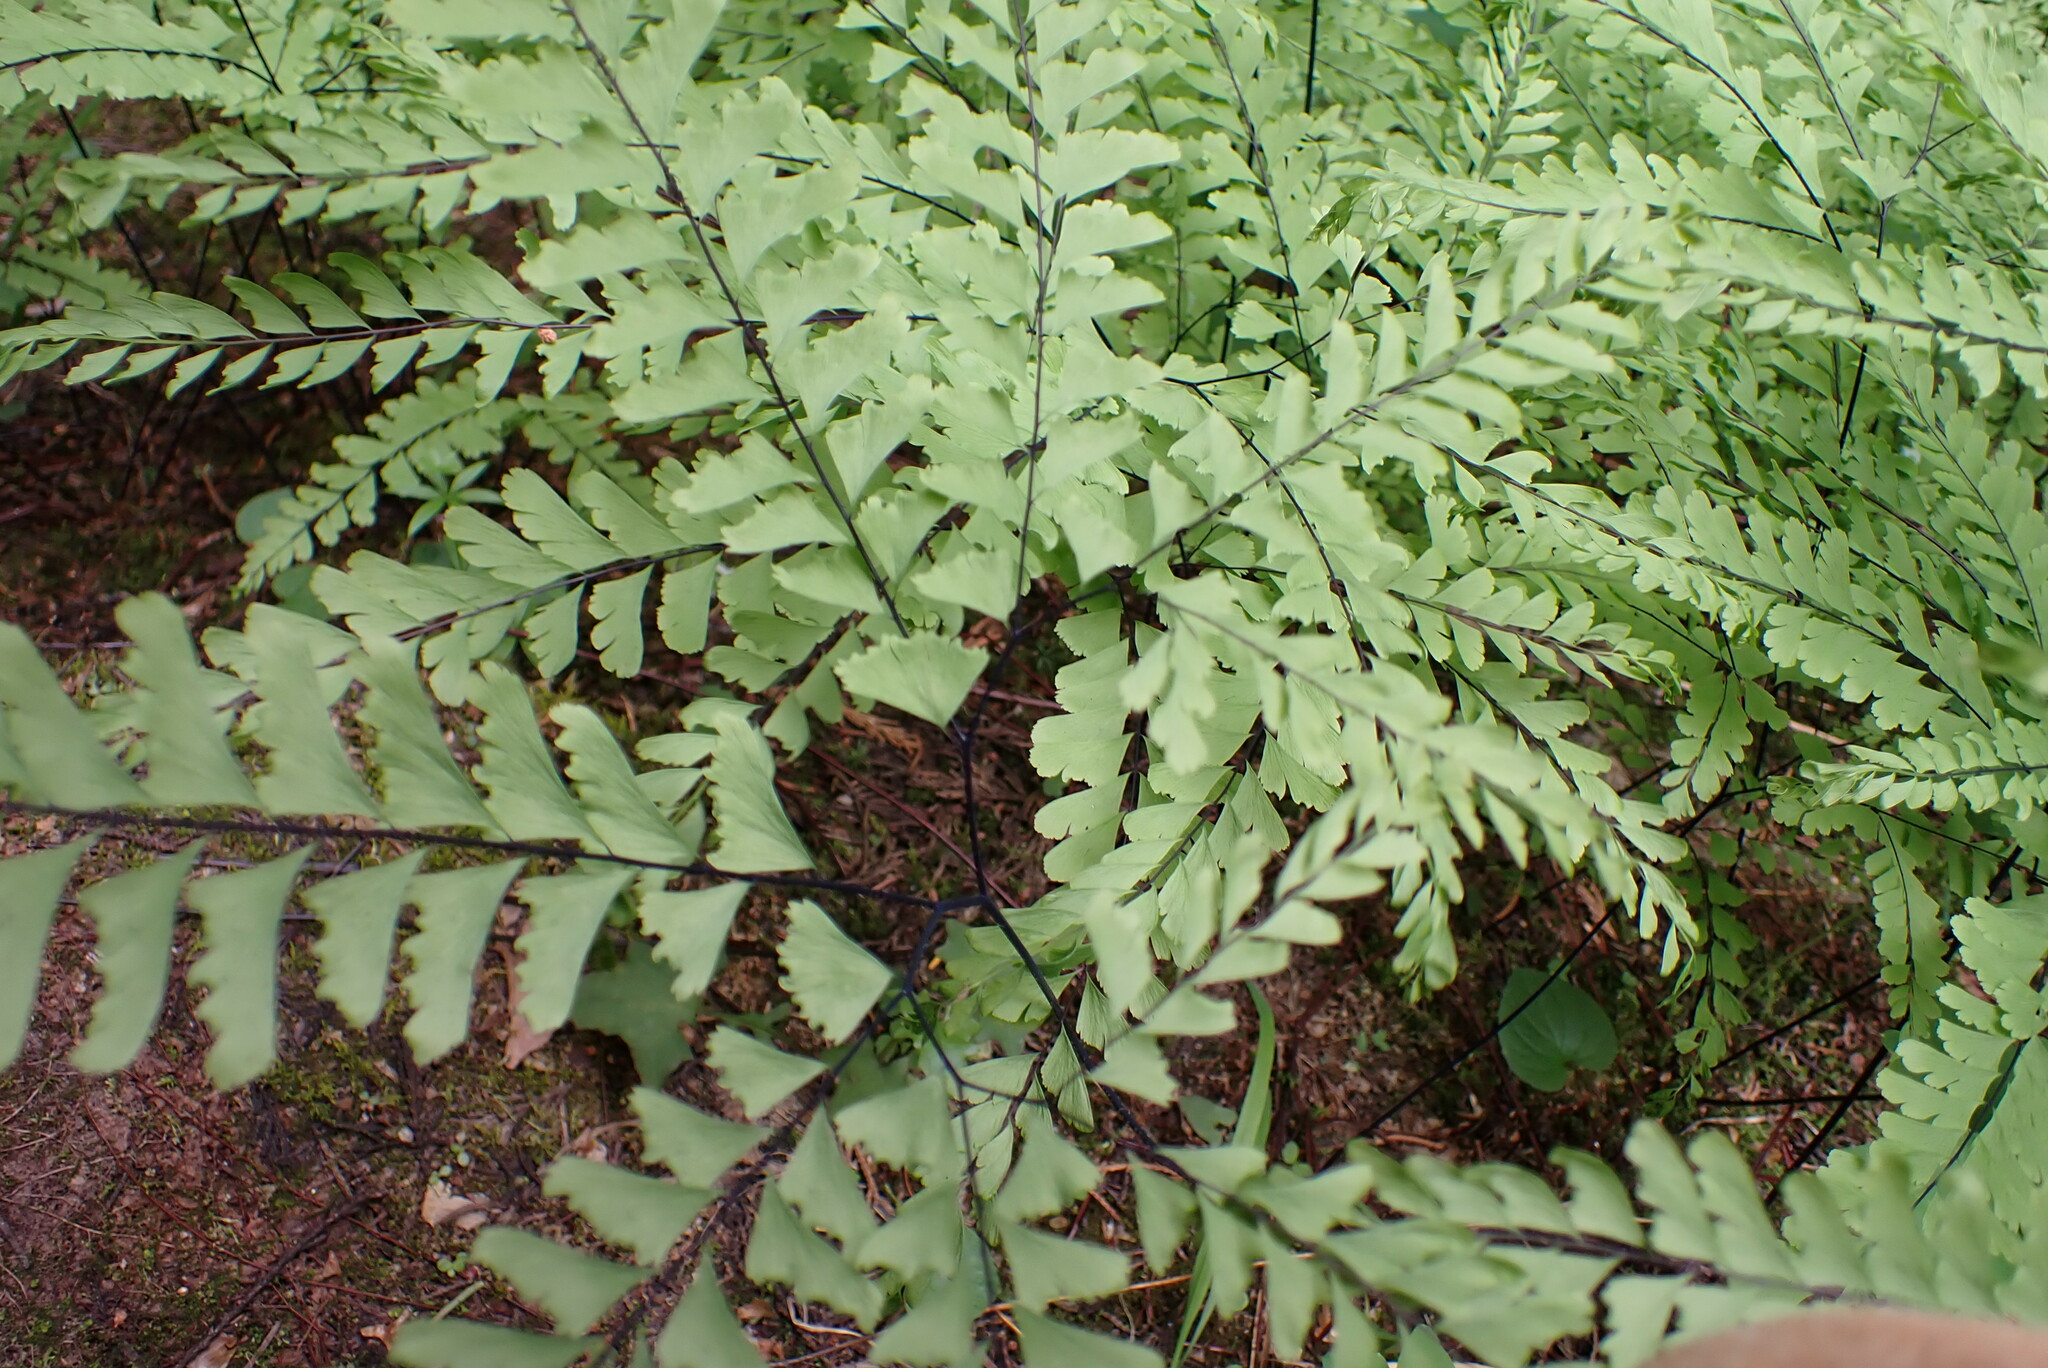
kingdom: Plantae
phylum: Tracheophyta
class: Polypodiopsida
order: Polypodiales
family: Pteridaceae
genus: Adiantum
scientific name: Adiantum aleuticum
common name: Aleutian maidenhair fern
